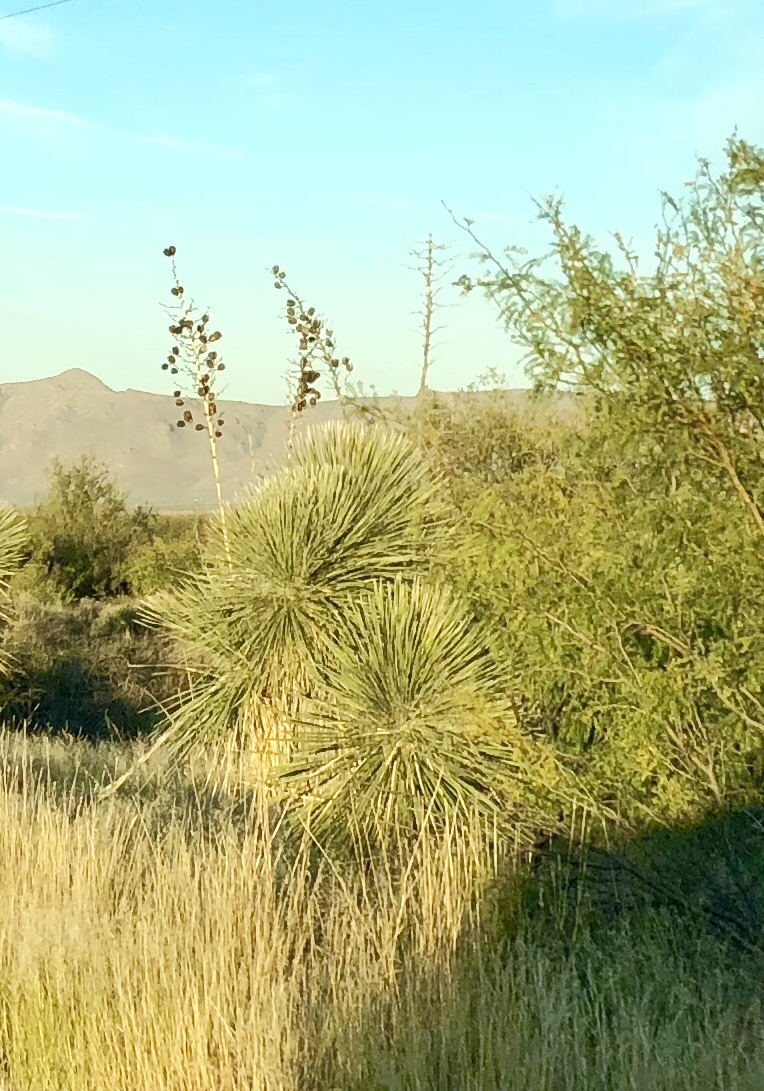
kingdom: Plantae
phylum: Tracheophyta
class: Liliopsida
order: Asparagales
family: Asparagaceae
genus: Yucca
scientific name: Yucca elata
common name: Palmella
